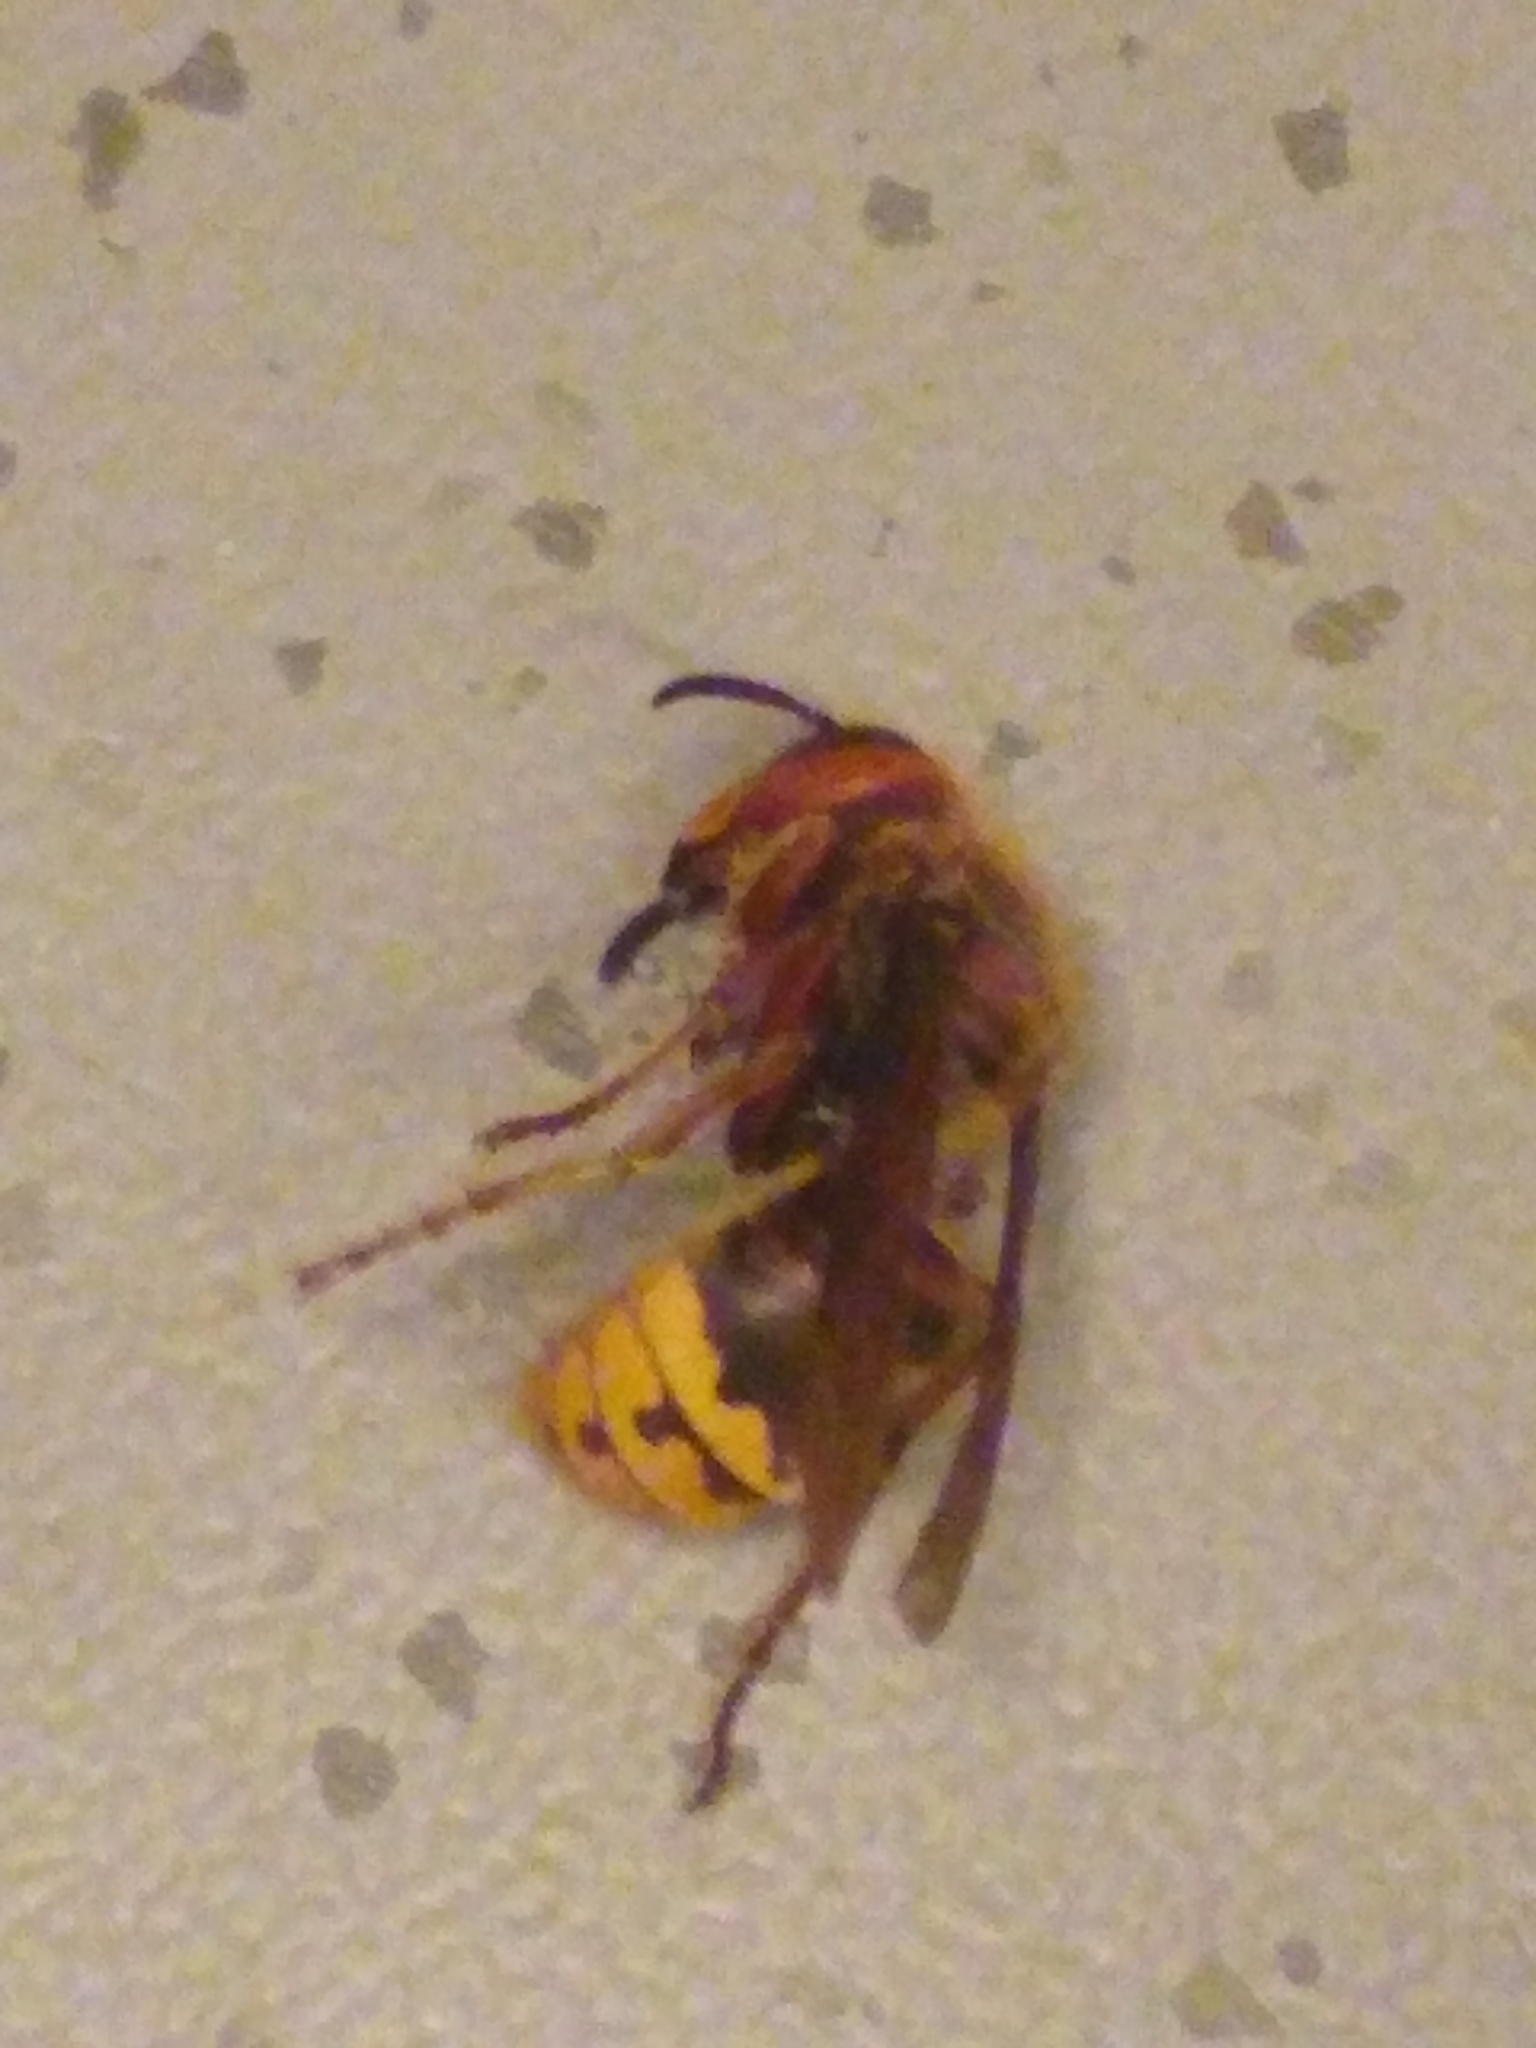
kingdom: Animalia
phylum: Arthropoda
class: Insecta
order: Hymenoptera
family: Vespidae
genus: Vespa
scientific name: Vespa crabro
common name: Hornet
